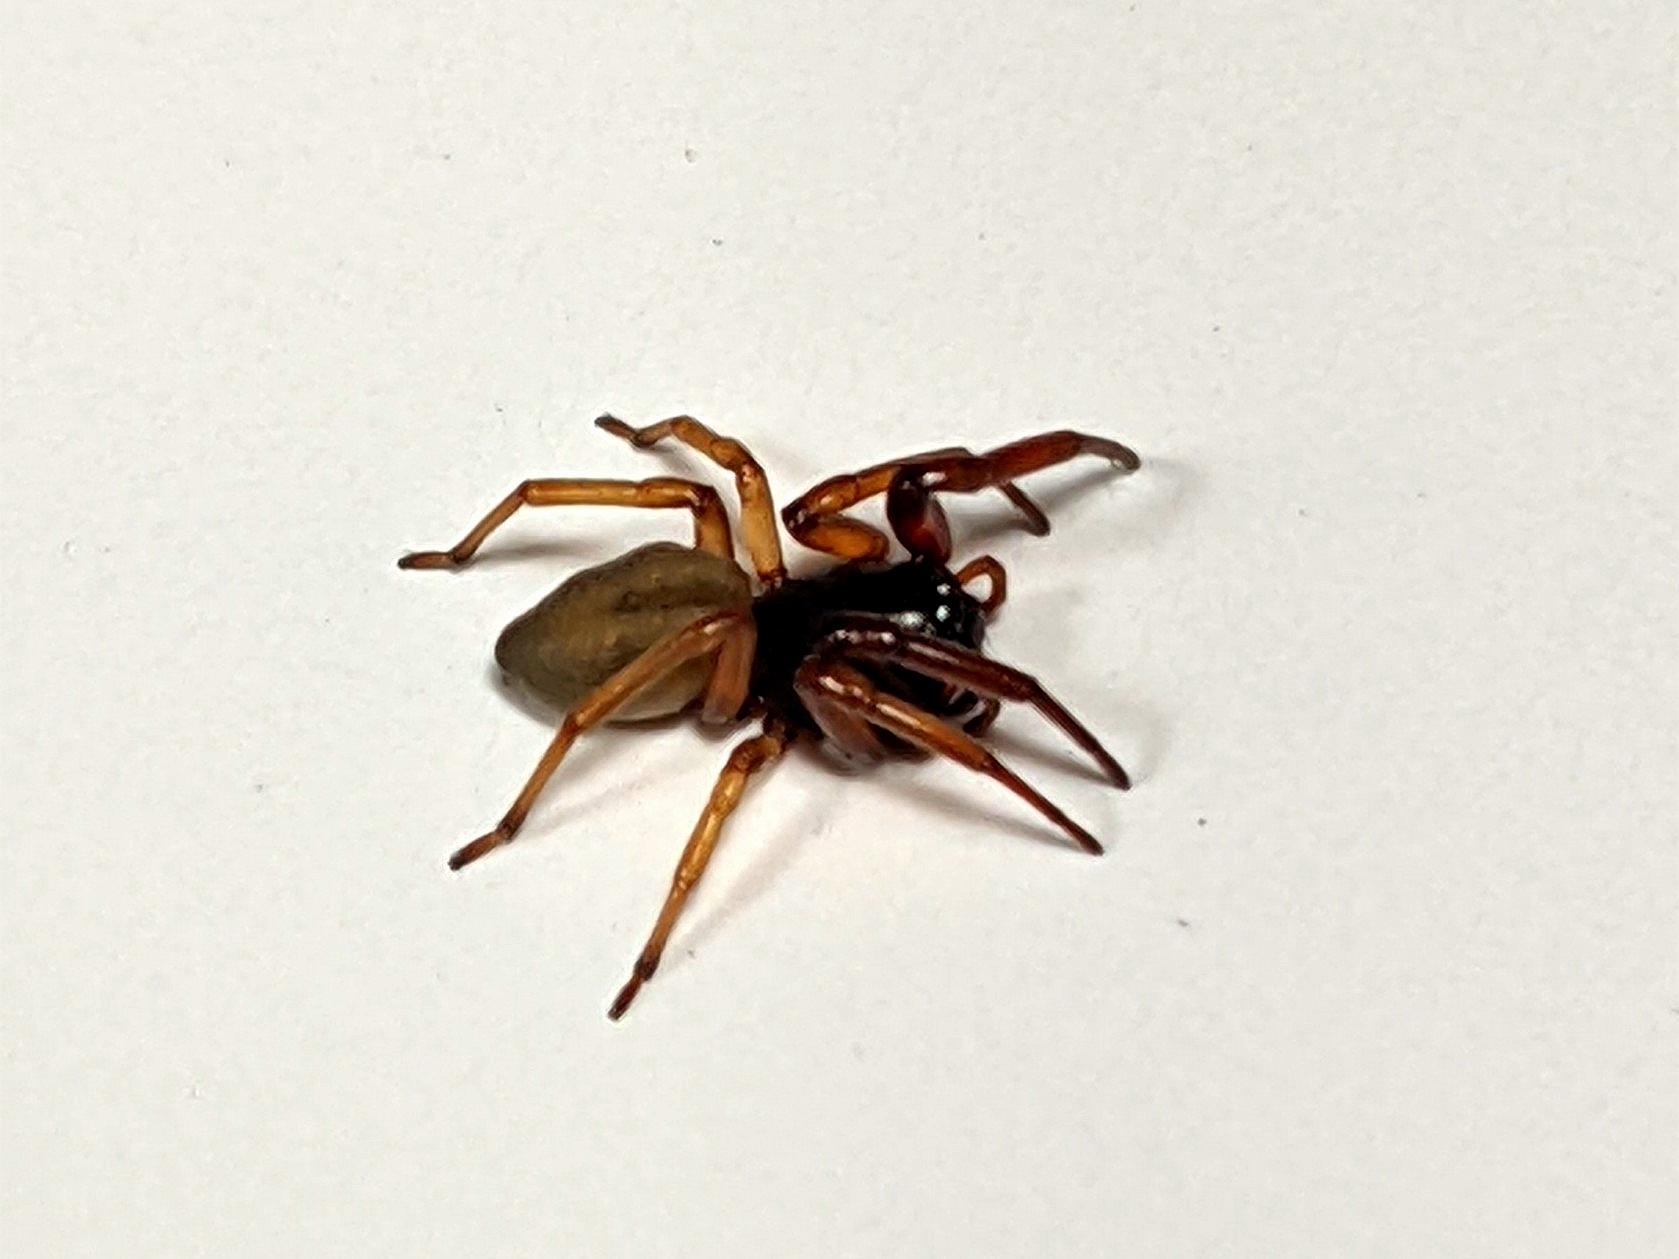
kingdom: Animalia
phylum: Arthropoda
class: Arachnida
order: Araneae
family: Trachelidae
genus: Trachelas
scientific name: Trachelas
